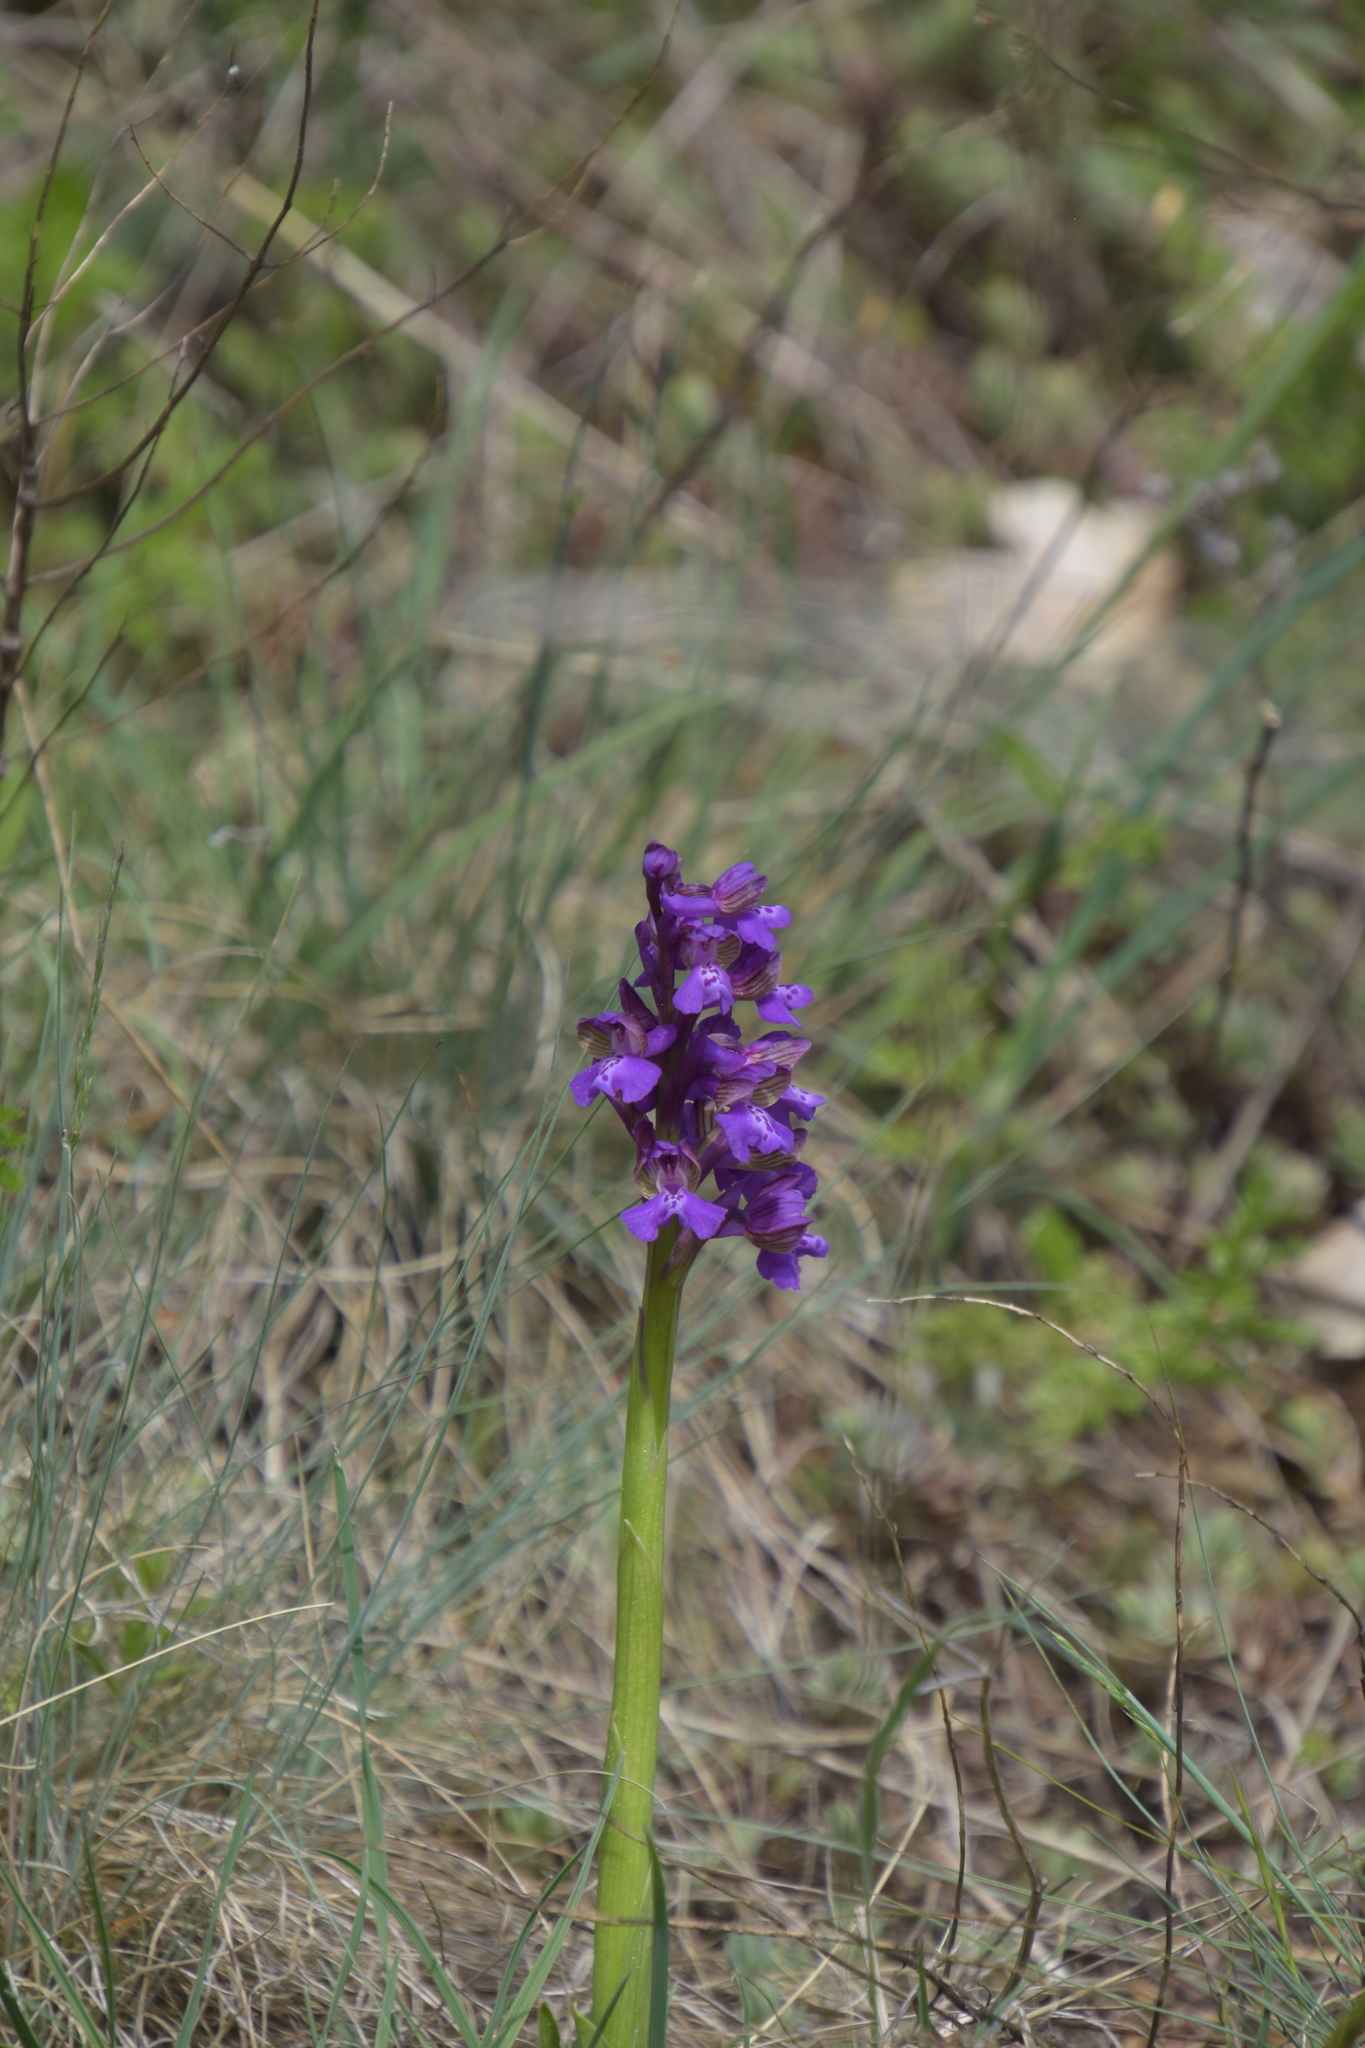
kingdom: Plantae
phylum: Tracheophyta
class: Liliopsida
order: Asparagales
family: Orchidaceae
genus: Anacamptis
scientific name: Anacamptis morio
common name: Green-winged orchid
